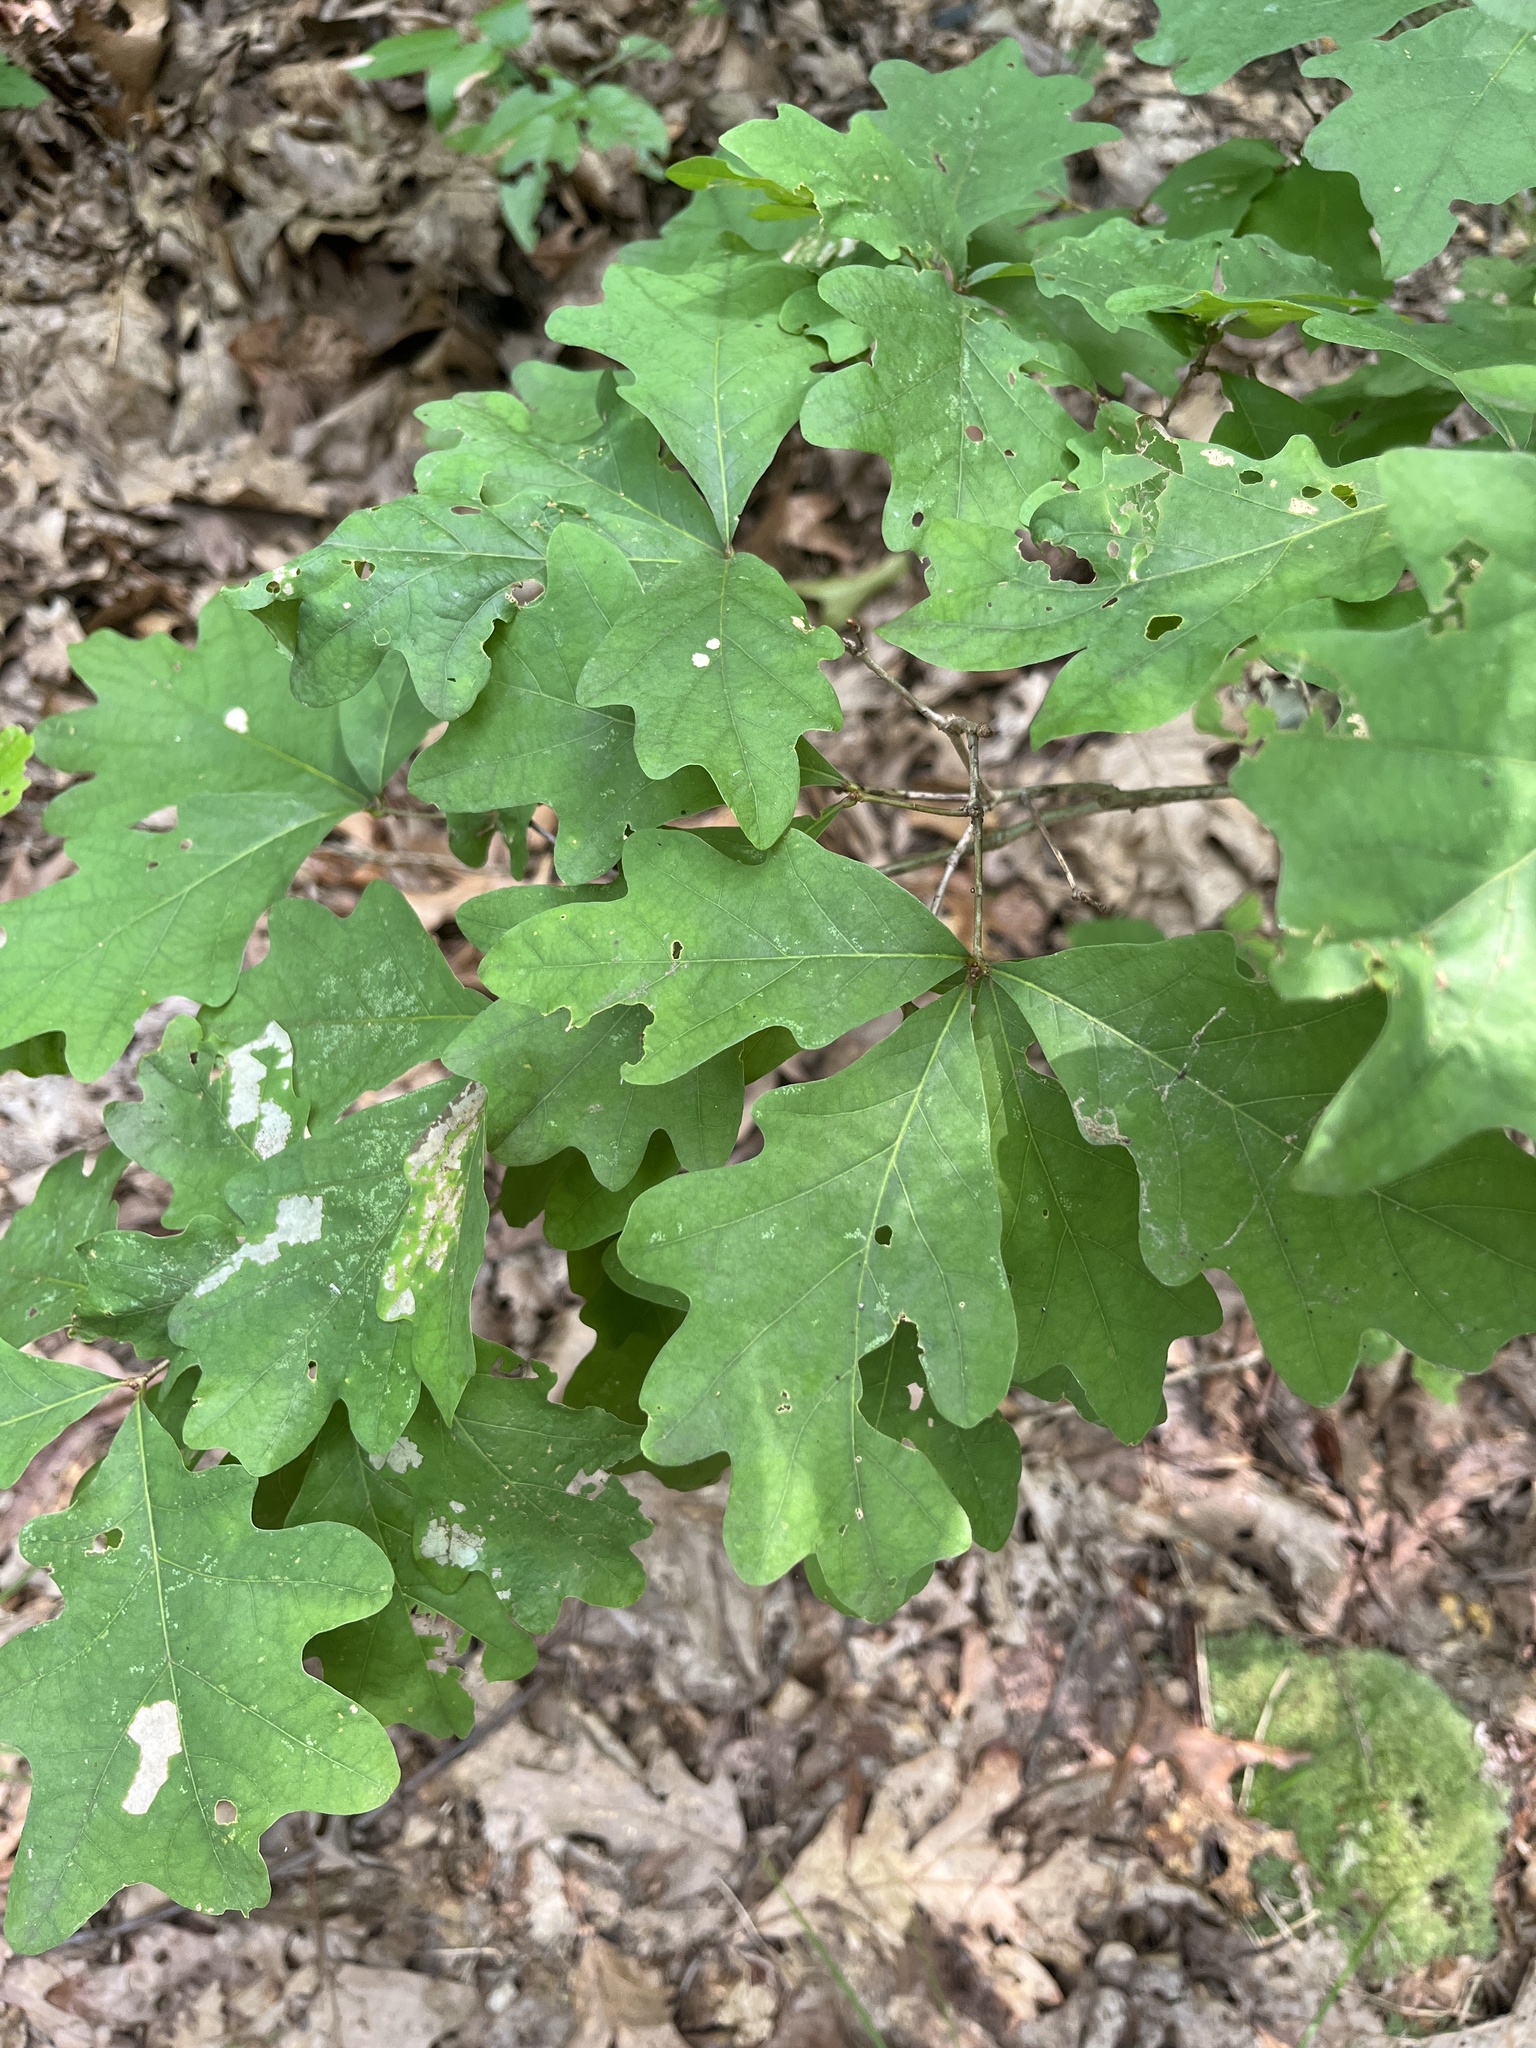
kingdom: Plantae
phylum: Tracheophyta
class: Magnoliopsida
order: Fagales
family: Fagaceae
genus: Quercus
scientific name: Quercus alba
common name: White oak
